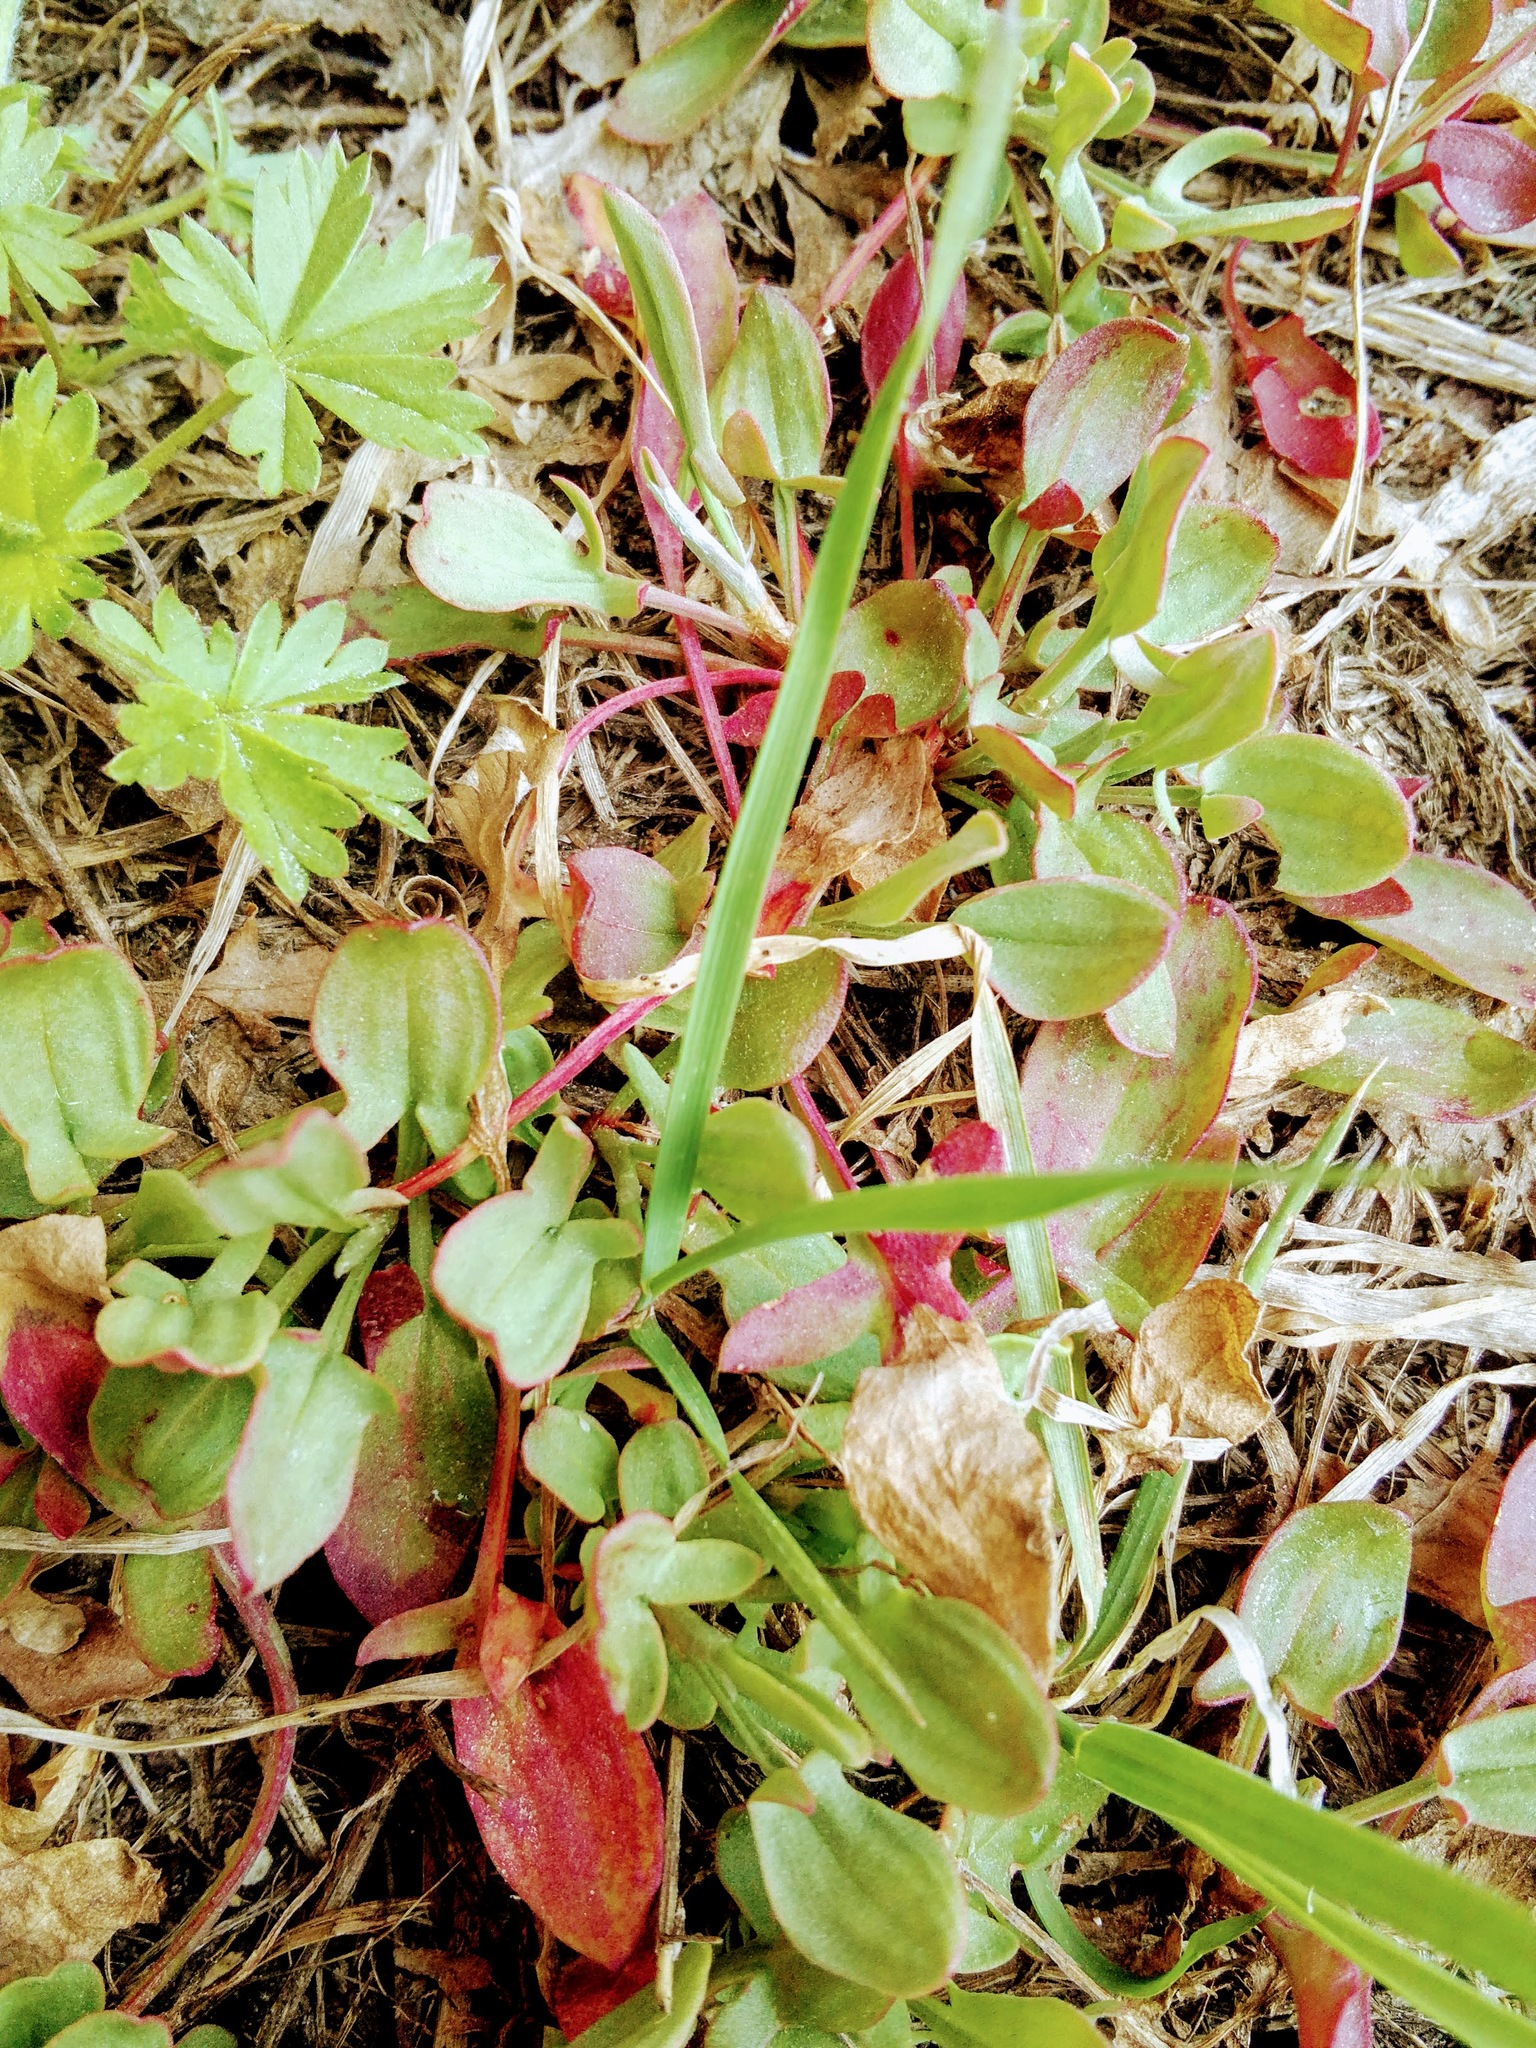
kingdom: Plantae
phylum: Tracheophyta
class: Magnoliopsida
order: Caryophyllales
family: Polygonaceae
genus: Rumex
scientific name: Rumex acetosella
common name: Common sheep sorrel
